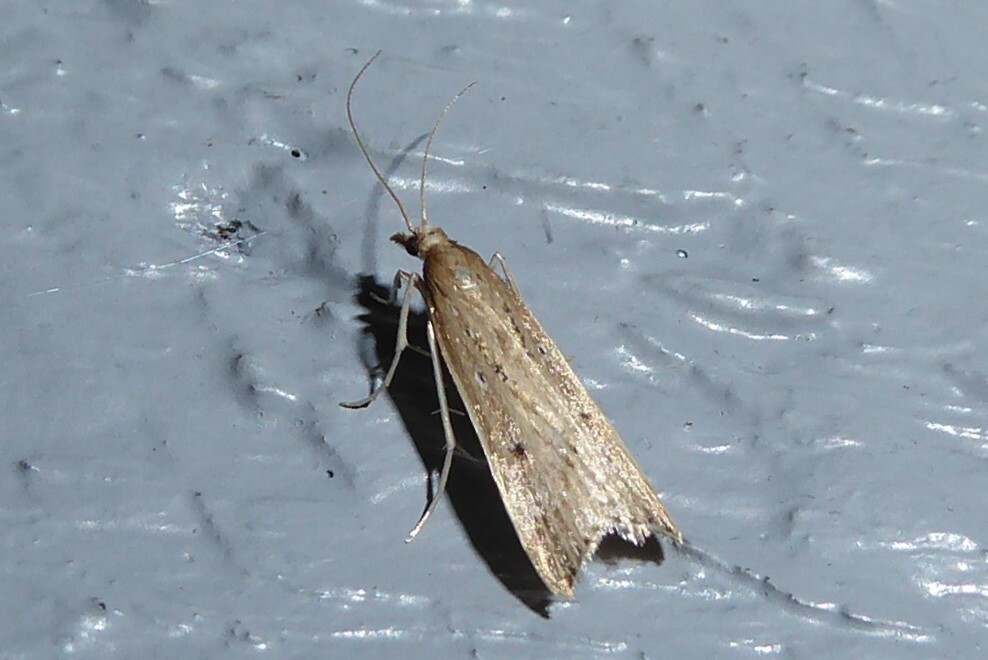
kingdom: Animalia
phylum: Arthropoda
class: Insecta
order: Lepidoptera
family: Crambidae
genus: Antiscopa
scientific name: Antiscopa elaphra
